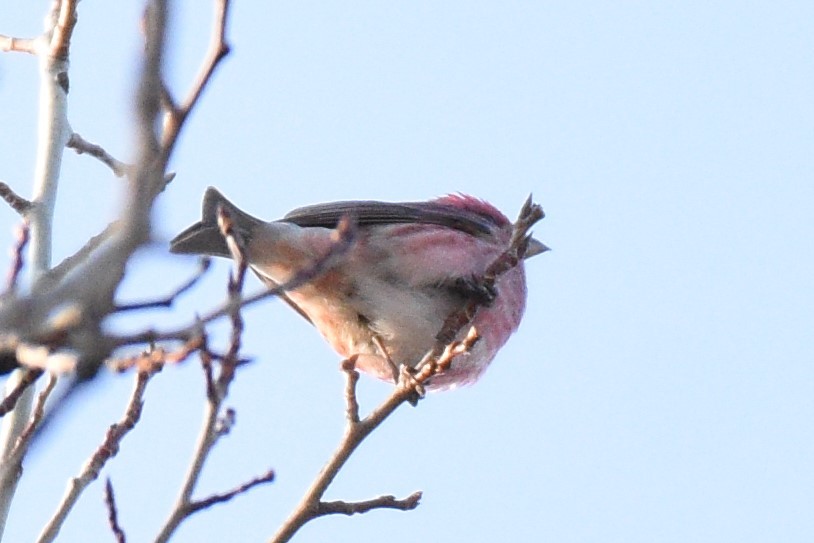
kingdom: Animalia
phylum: Chordata
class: Aves
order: Passeriformes
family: Fringillidae
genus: Haemorhous
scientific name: Haemorhous purpureus
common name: Purple finch
